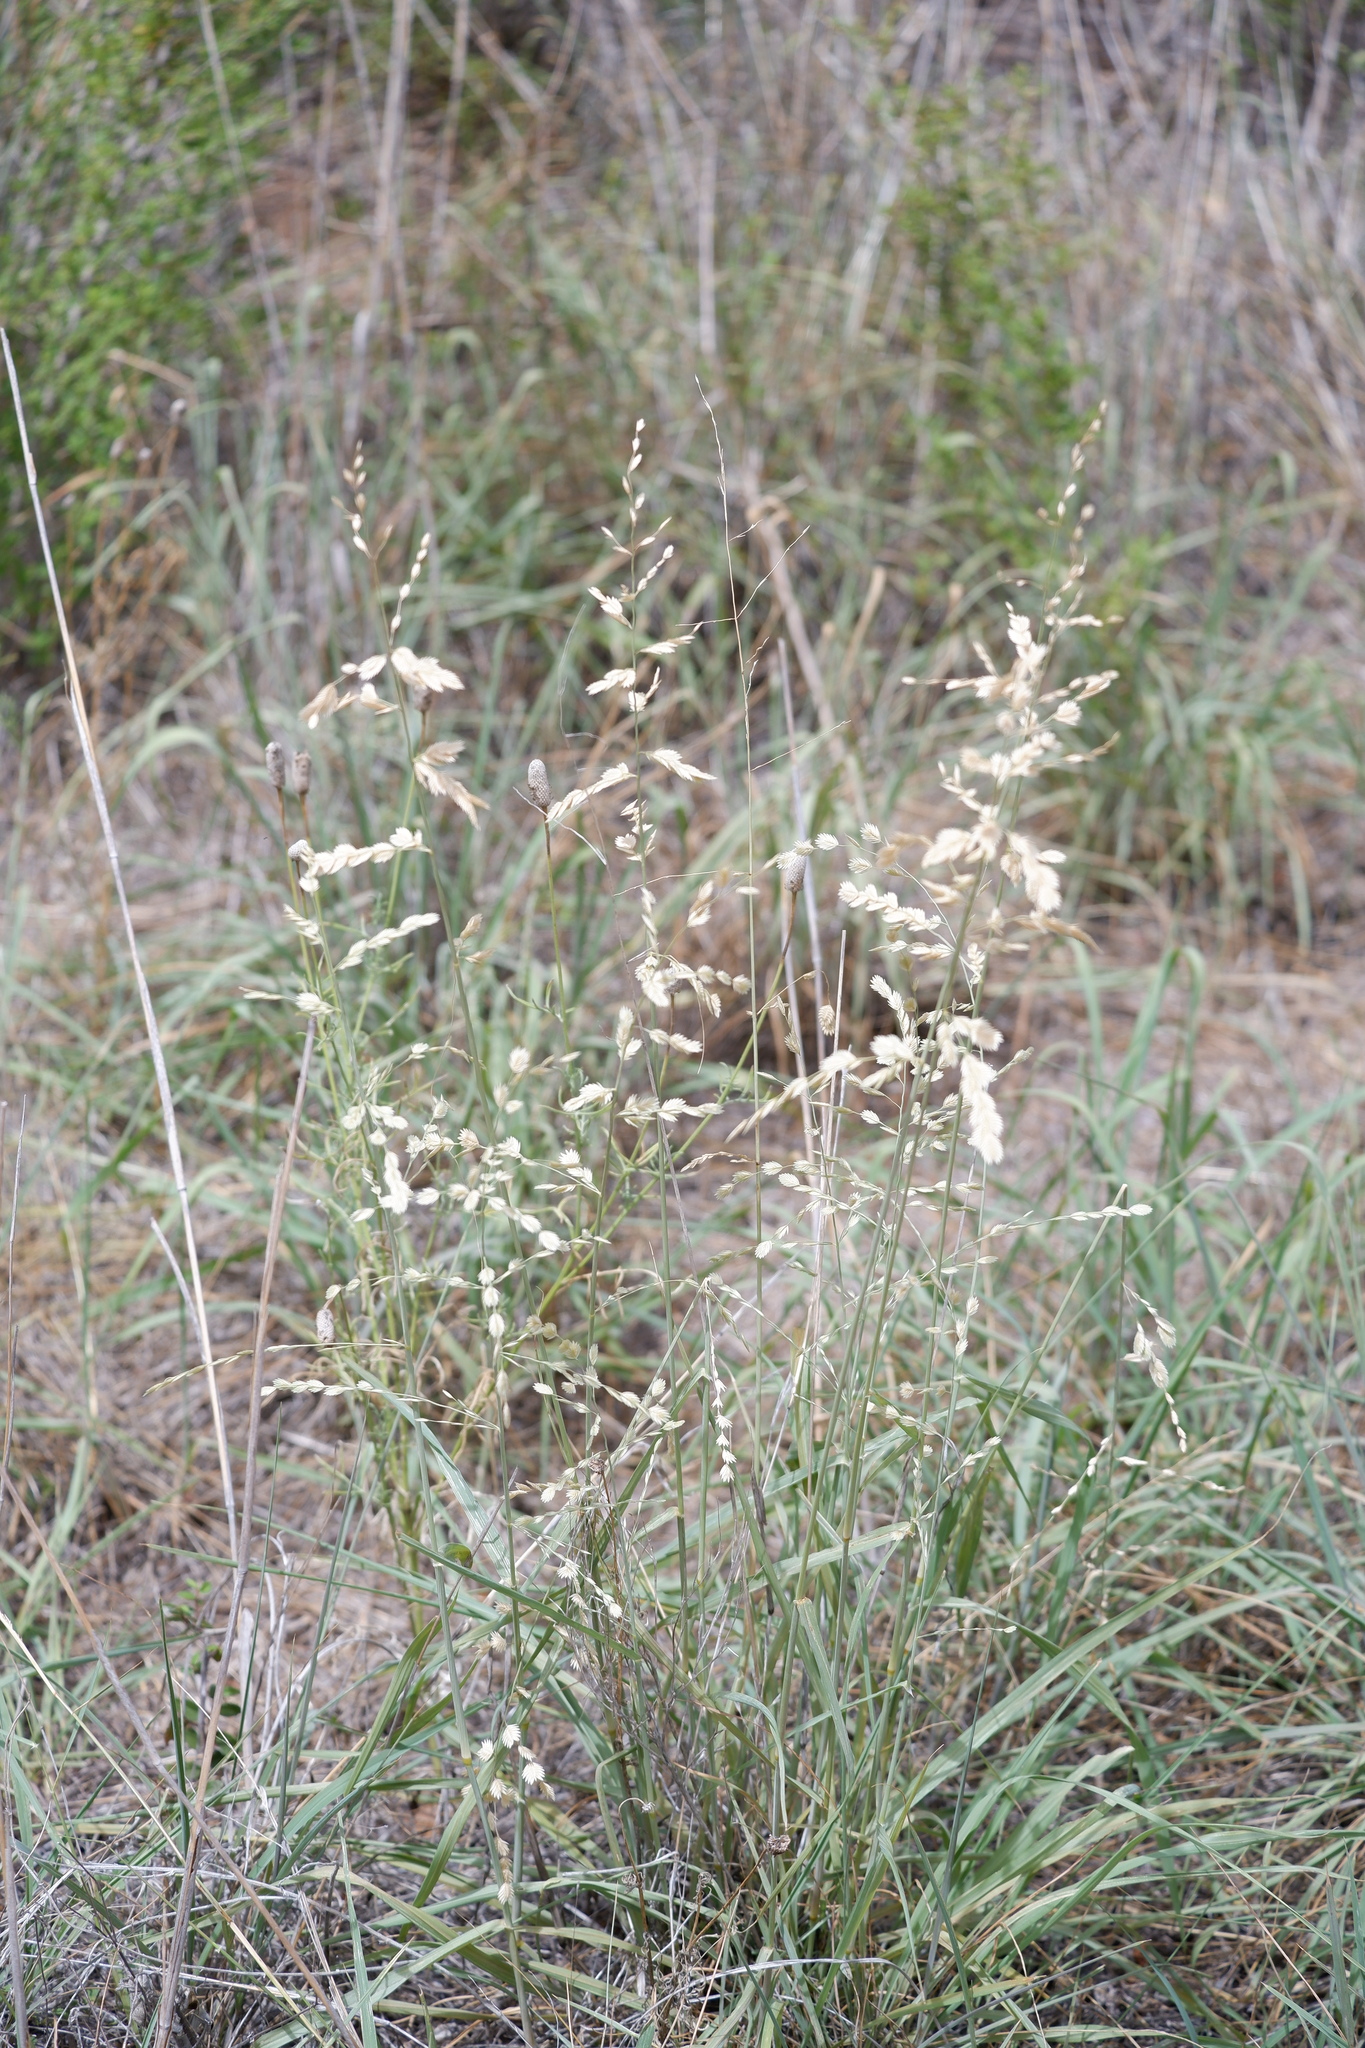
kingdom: Plantae
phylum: Tracheophyta
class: Liliopsida
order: Poales
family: Poaceae
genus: Eragrostis
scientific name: Eragrostis superba
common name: Wilman lovegrass
